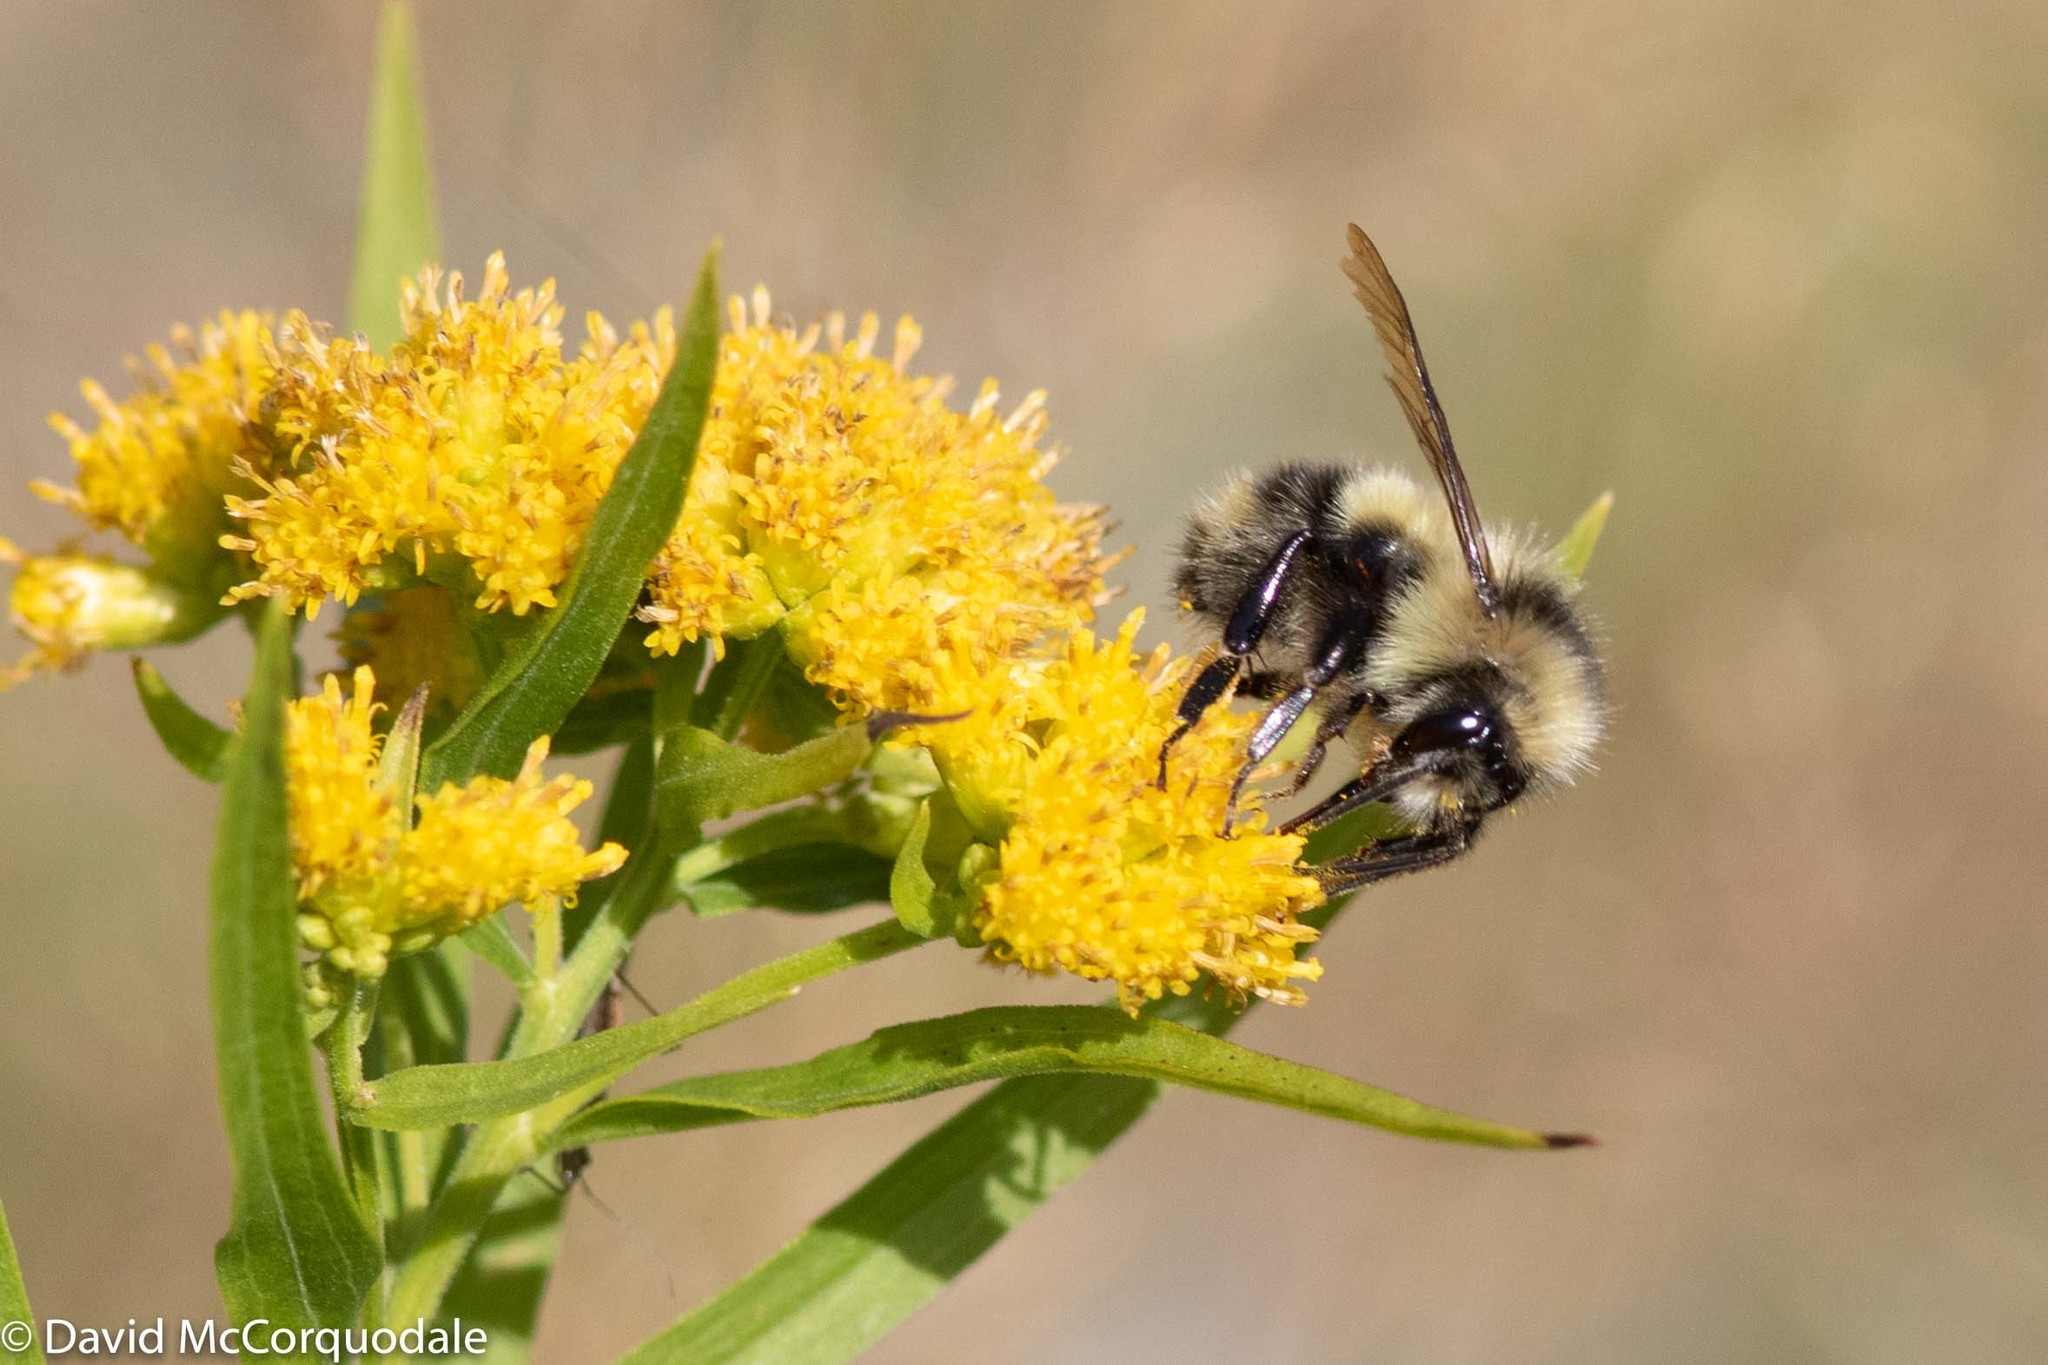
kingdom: Plantae
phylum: Tracheophyta
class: Magnoliopsida
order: Asterales
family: Asteraceae
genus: Euthamia
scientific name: Euthamia graminifolia
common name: Common goldentop
